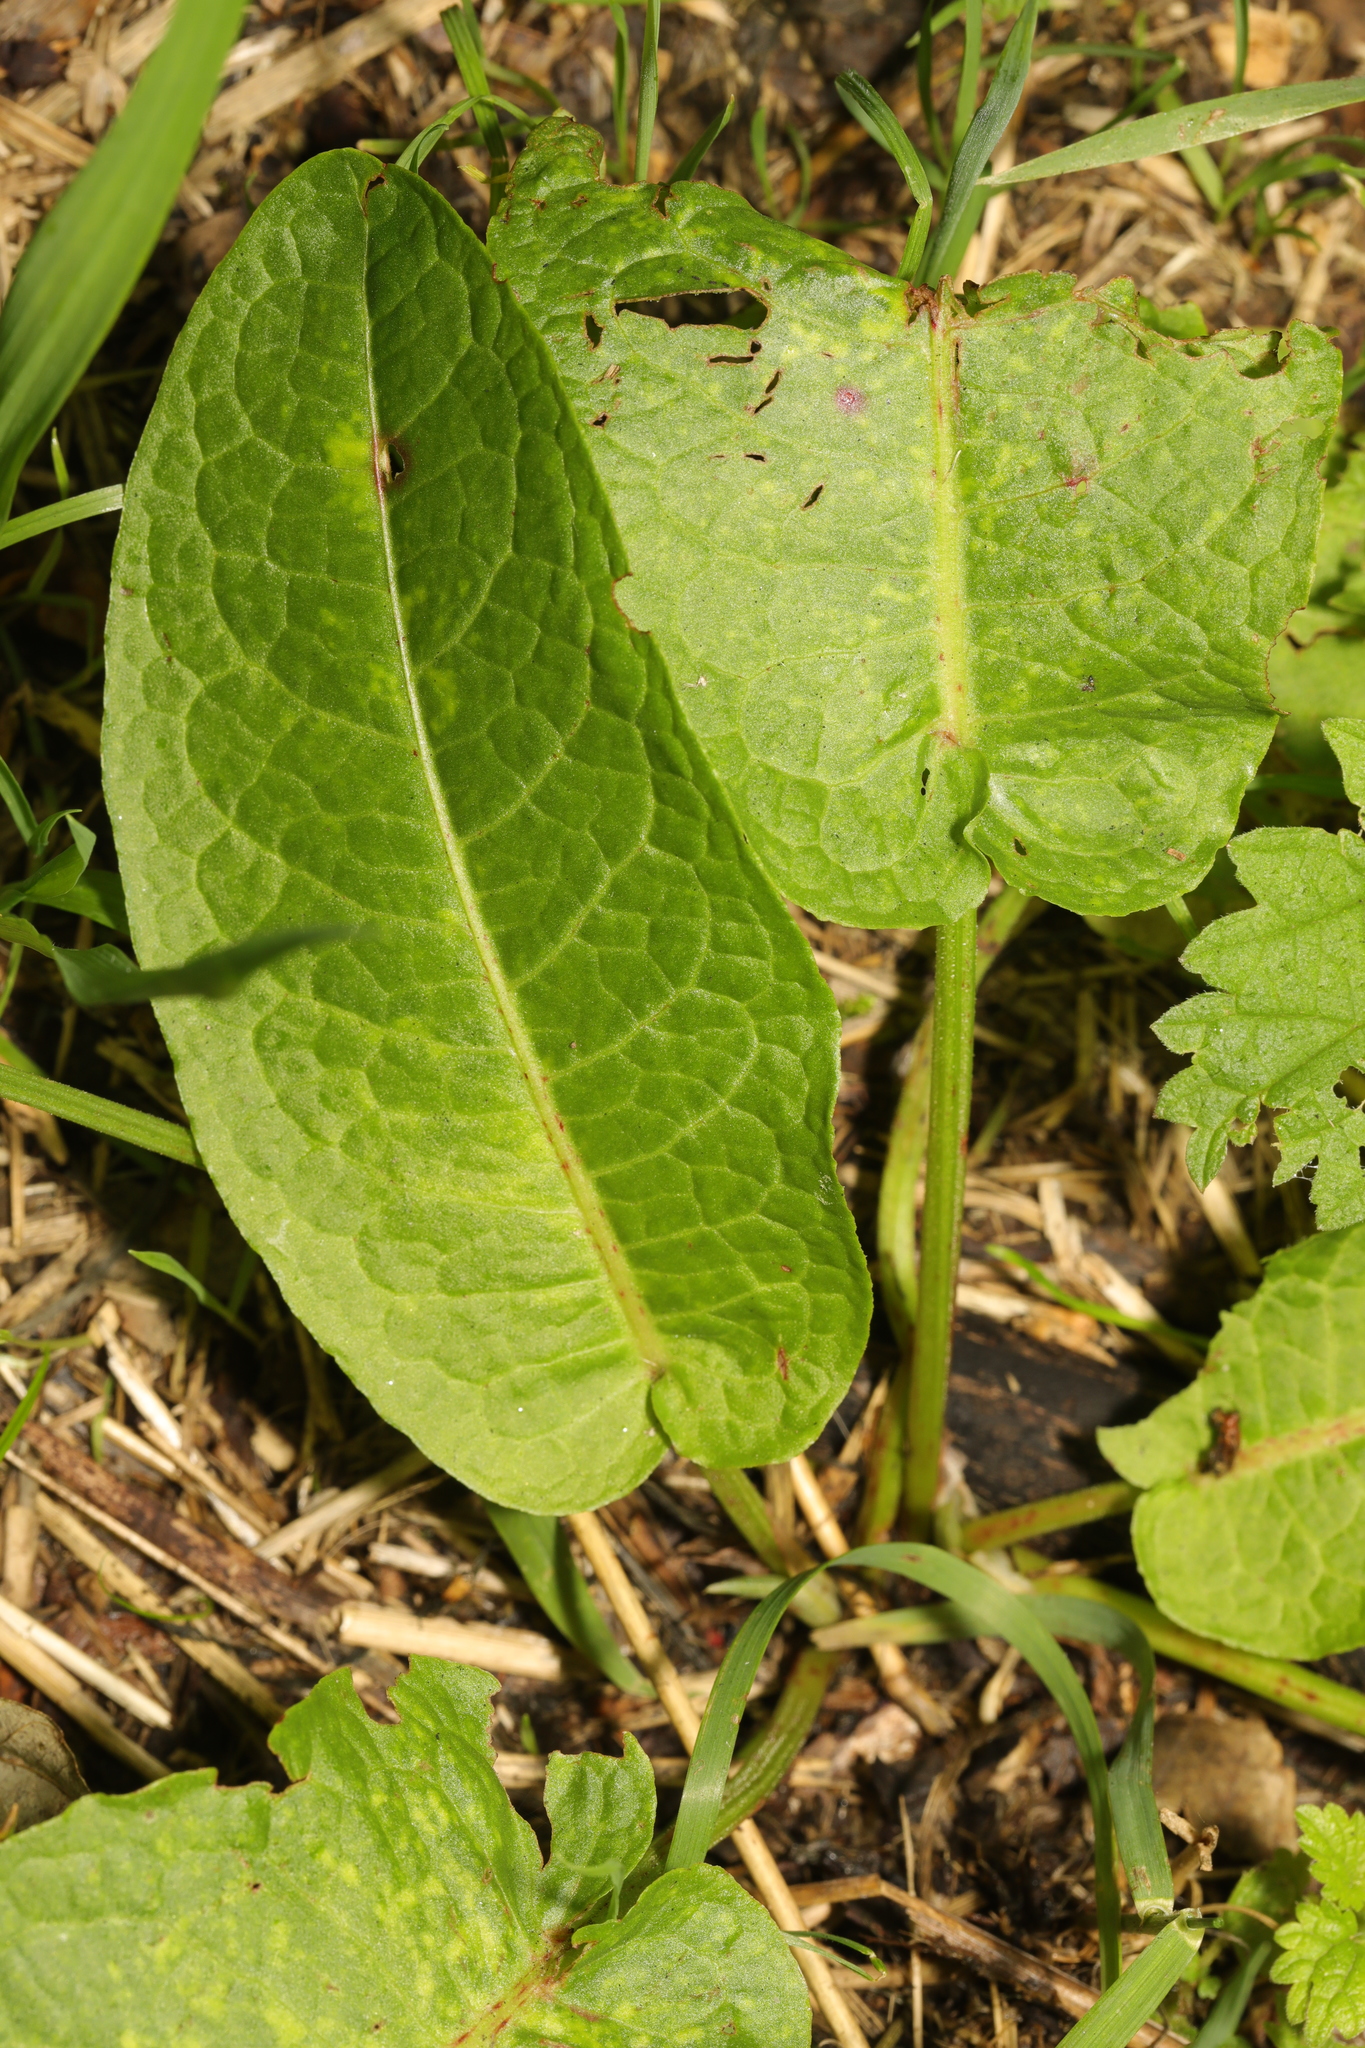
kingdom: Plantae
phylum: Tracheophyta
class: Magnoliopsida
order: Caryophyllales
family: Polygonaceae
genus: Rumex
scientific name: Rumex obtusifolius
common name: Bitter dock
